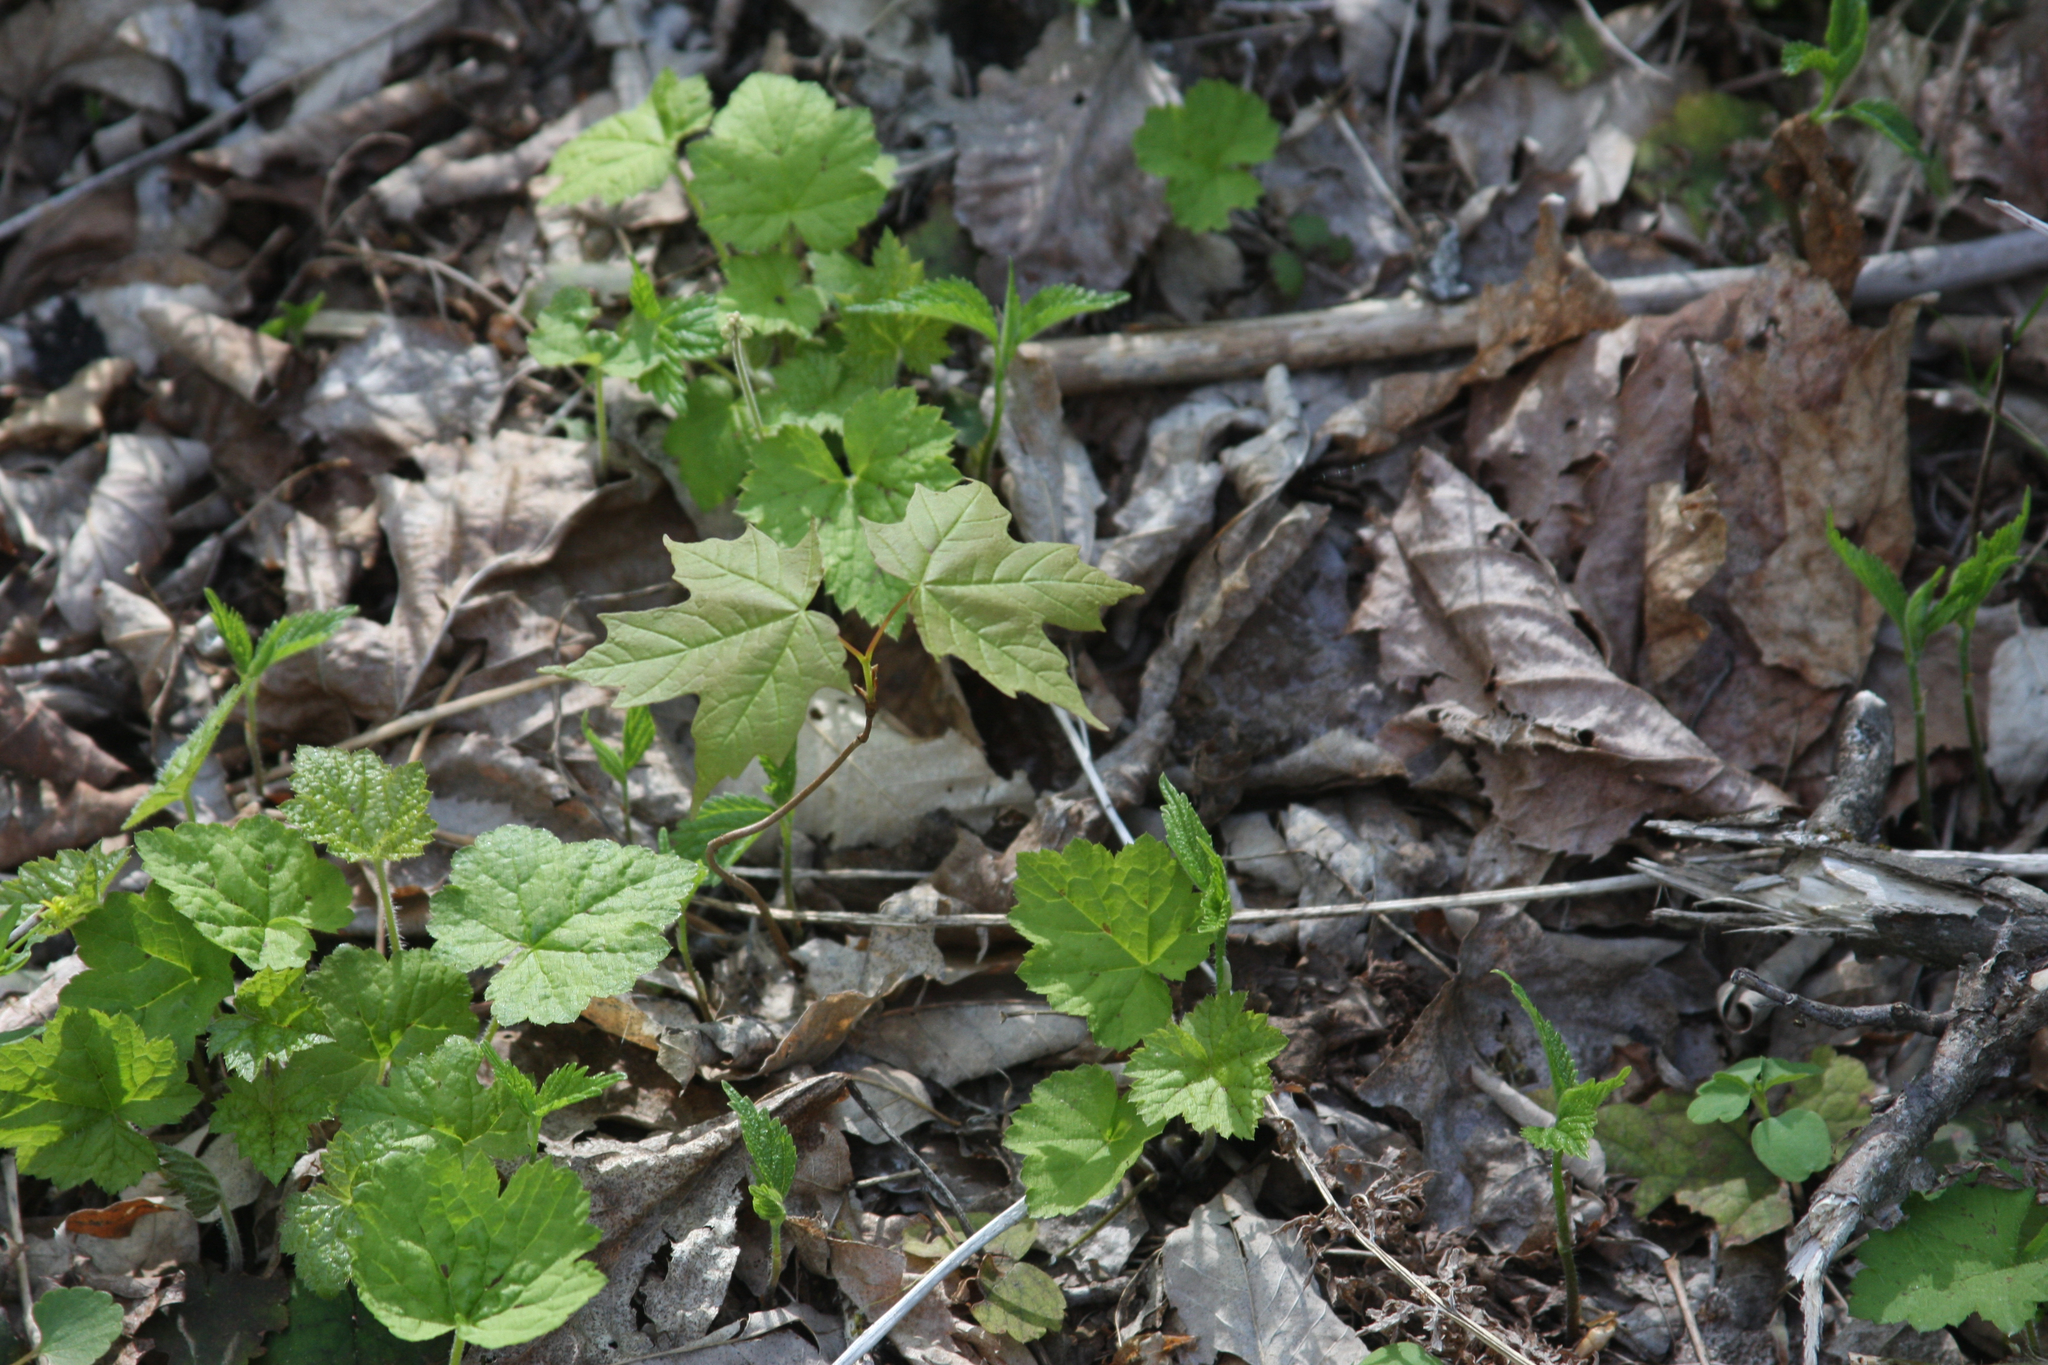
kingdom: Plantae
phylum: Tracheophyta
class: Magnoliopsida
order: Sapindales
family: Sapindaceae
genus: Acer
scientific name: Acer saccharum
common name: Sugar maple
